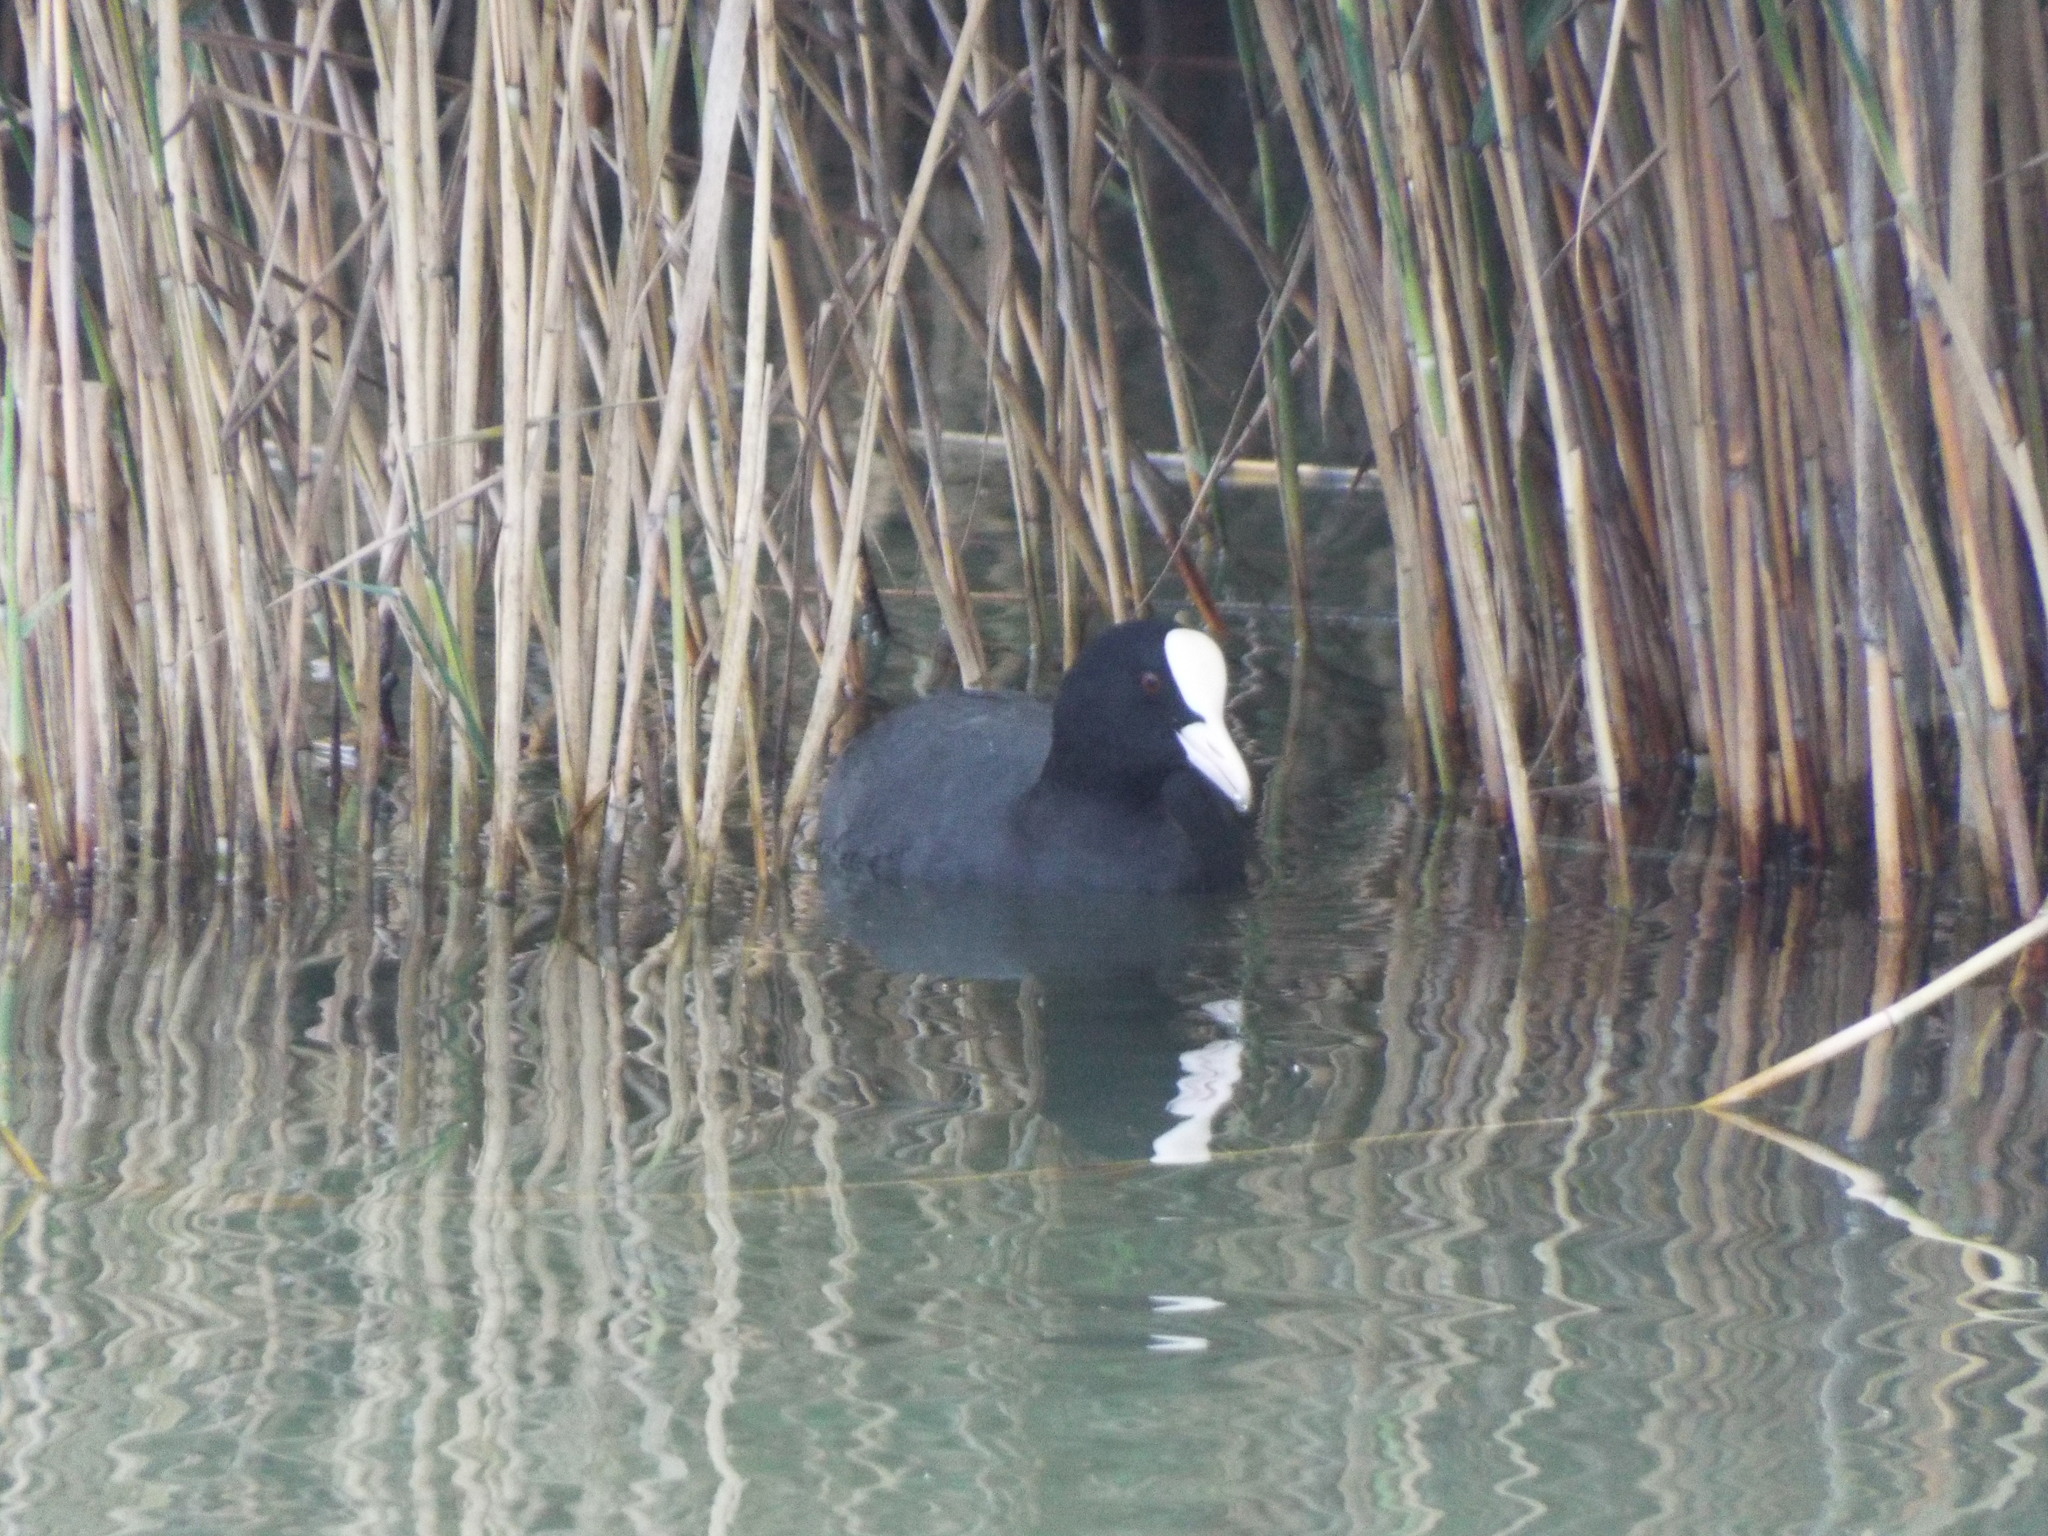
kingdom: Animalia
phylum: Chordata
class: Aves
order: Gruiformes
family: Rallidae
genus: Fulica
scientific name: Fulica atra
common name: Eurasian coot
